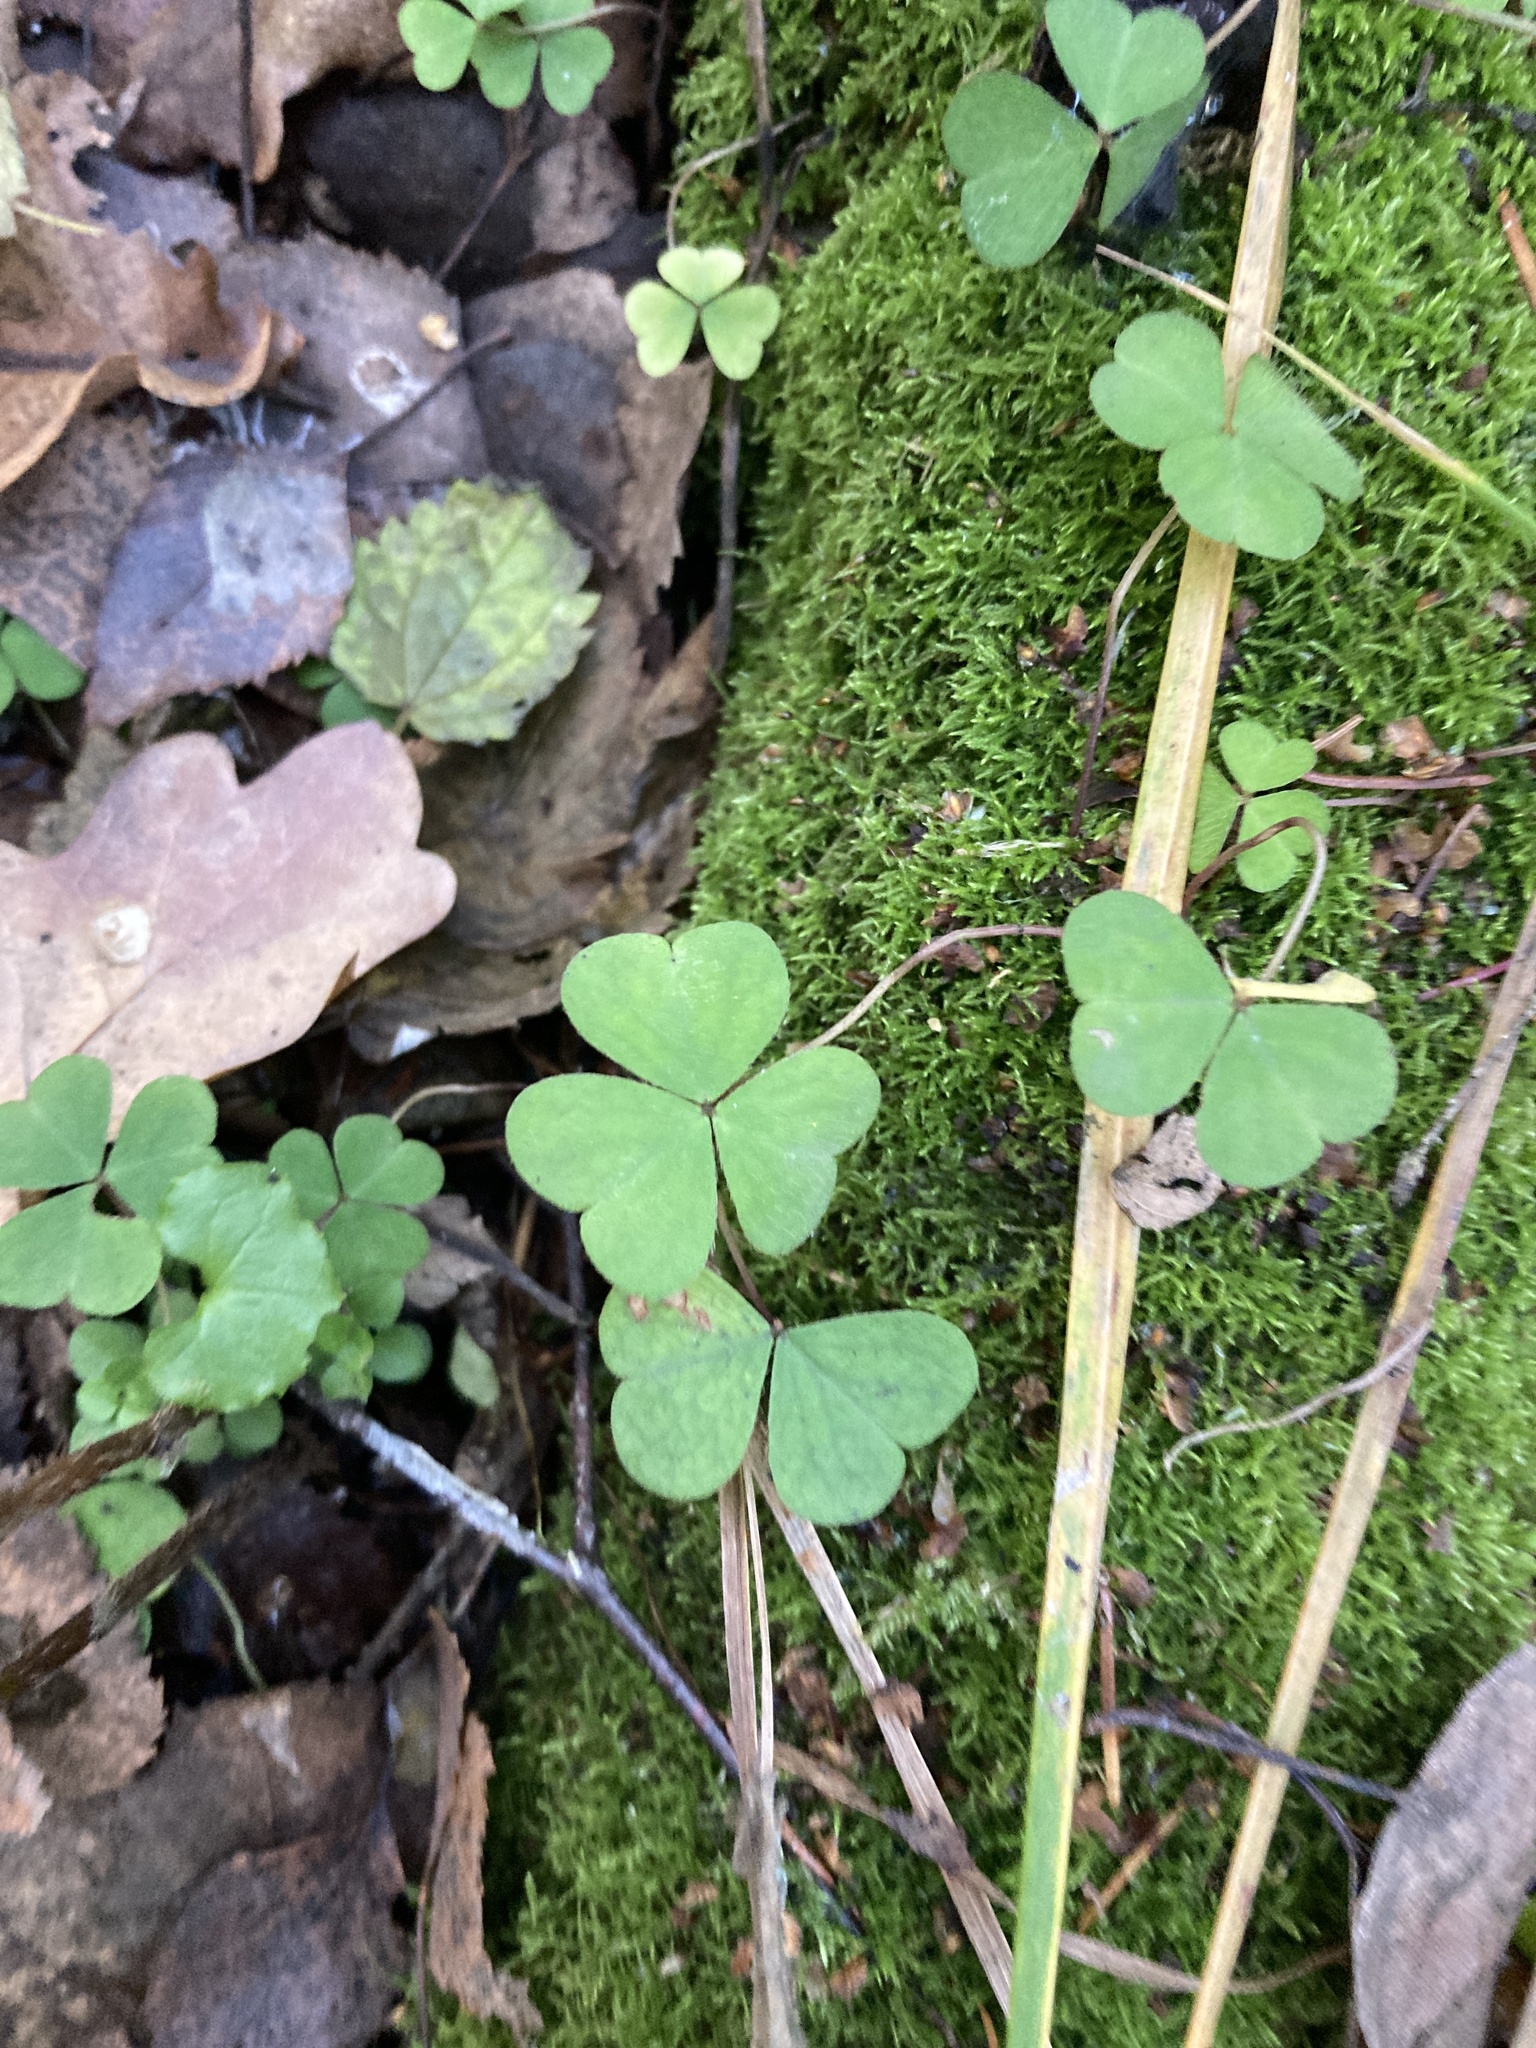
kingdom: Plantae
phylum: Tracheophyta
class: Magnoliopsida
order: Oxalidales
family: Oxalidaceae
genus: Oxalis
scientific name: Oxalis acetosella
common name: Wood-sorrel
